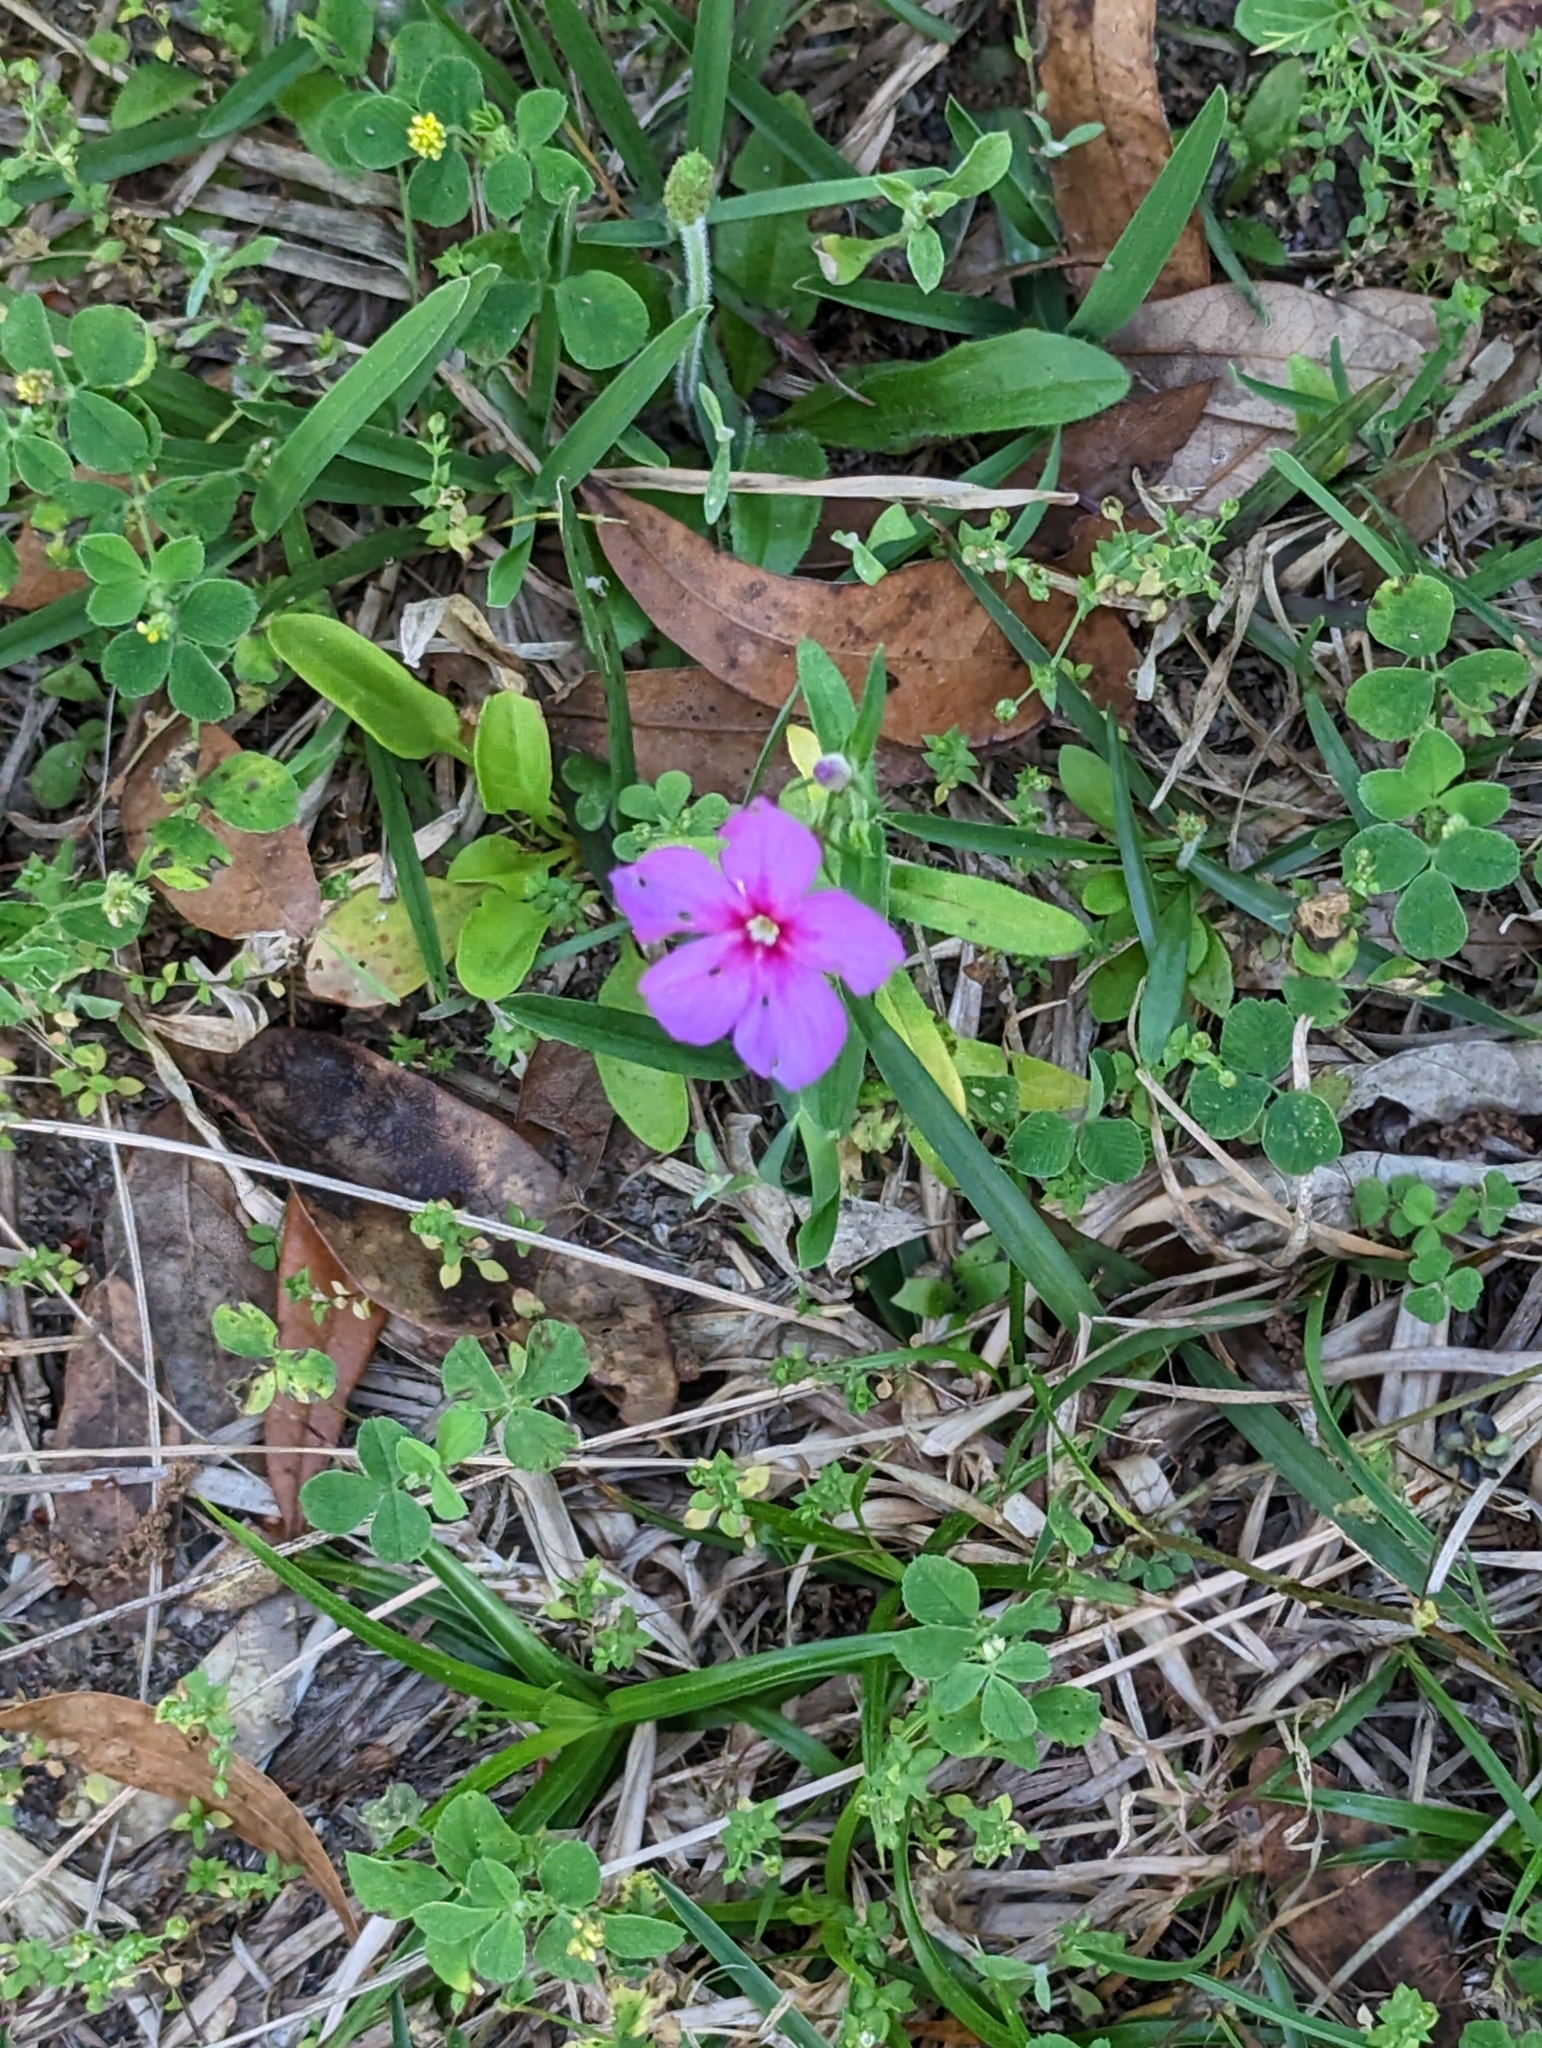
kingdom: Plantae
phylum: Tracheophyta
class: Magnoliopsida
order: Ericales
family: Polemoniaceae
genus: Phlox
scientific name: Phlox drummondii
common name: Drummond's phlox
